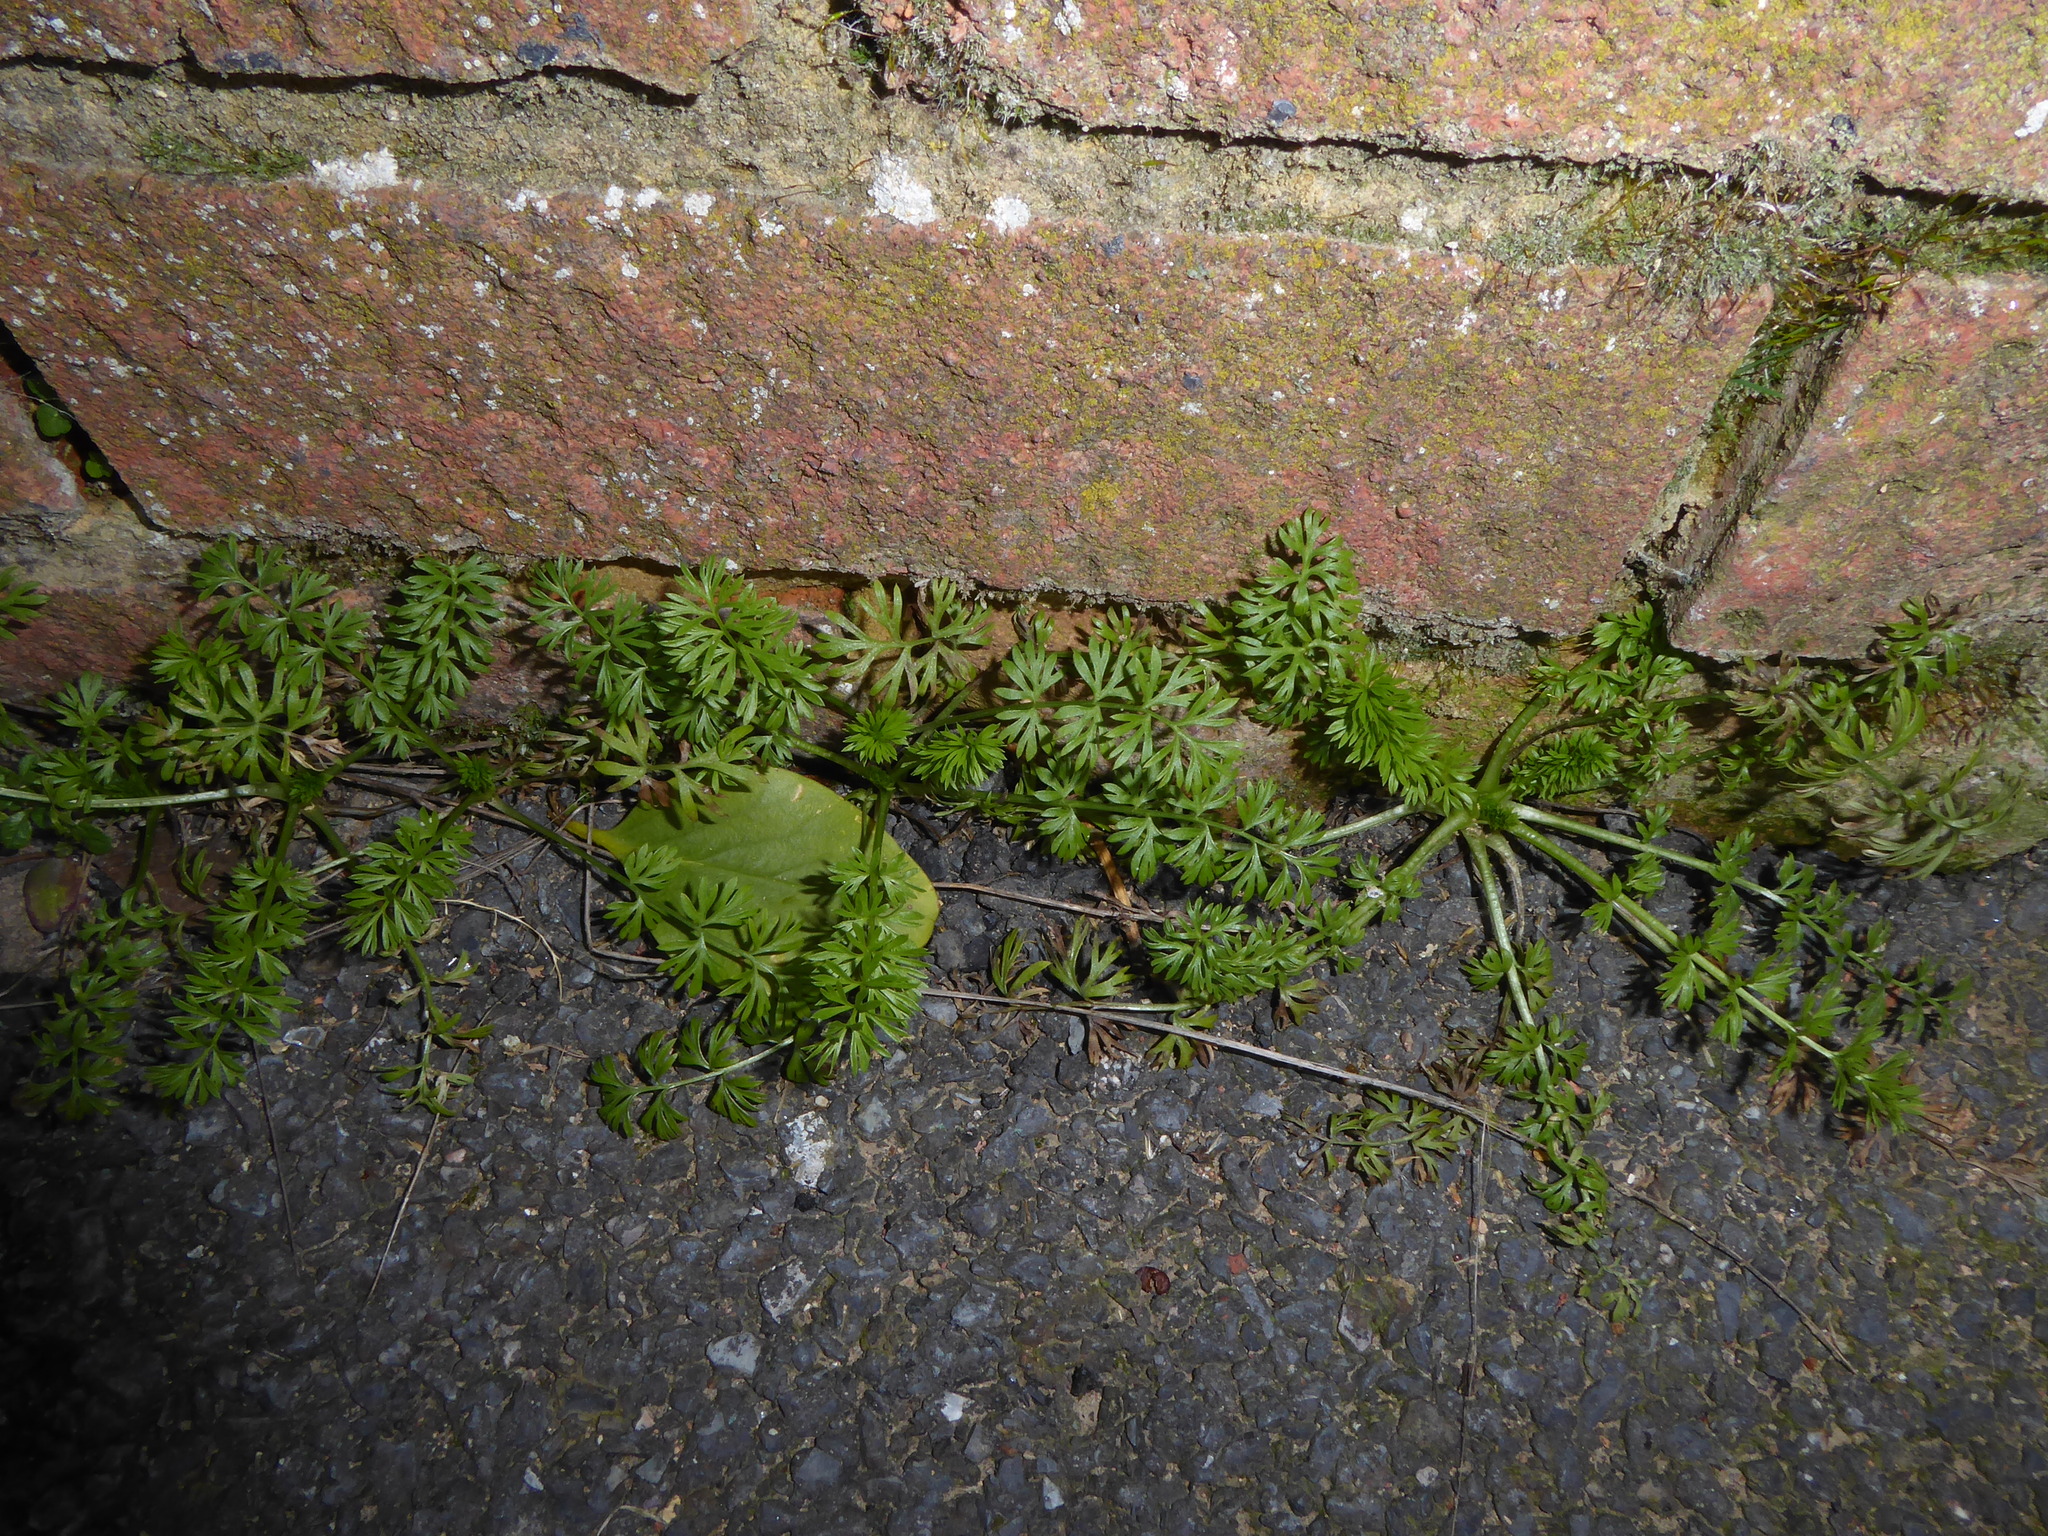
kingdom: Plantae
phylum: Tracheophyta
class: Magnoliopsida
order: Ranunculales
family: Ranunculaceae
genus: Nigella
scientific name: Nigella damascena
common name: Love-in-a-mist
